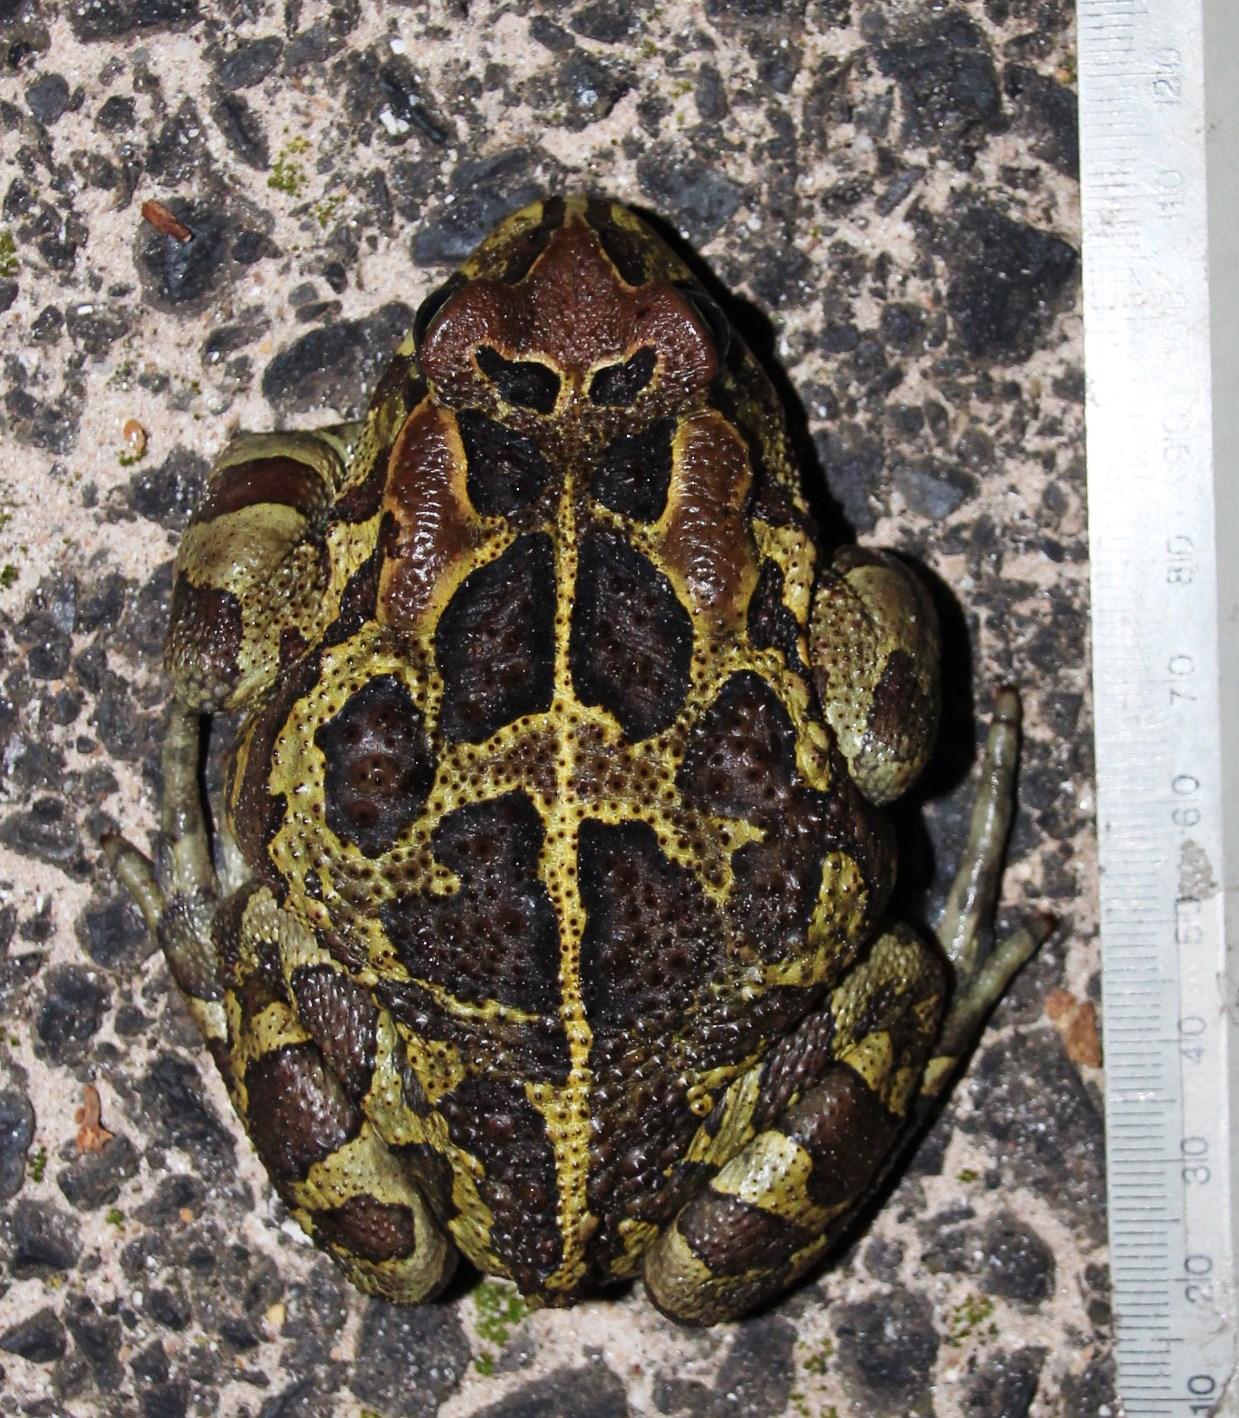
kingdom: Animalia
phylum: Chordata
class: Amphibia
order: Anura
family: Bufonidae
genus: Sclerophrys
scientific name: Sclerophrys pantherina
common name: Panther toad
